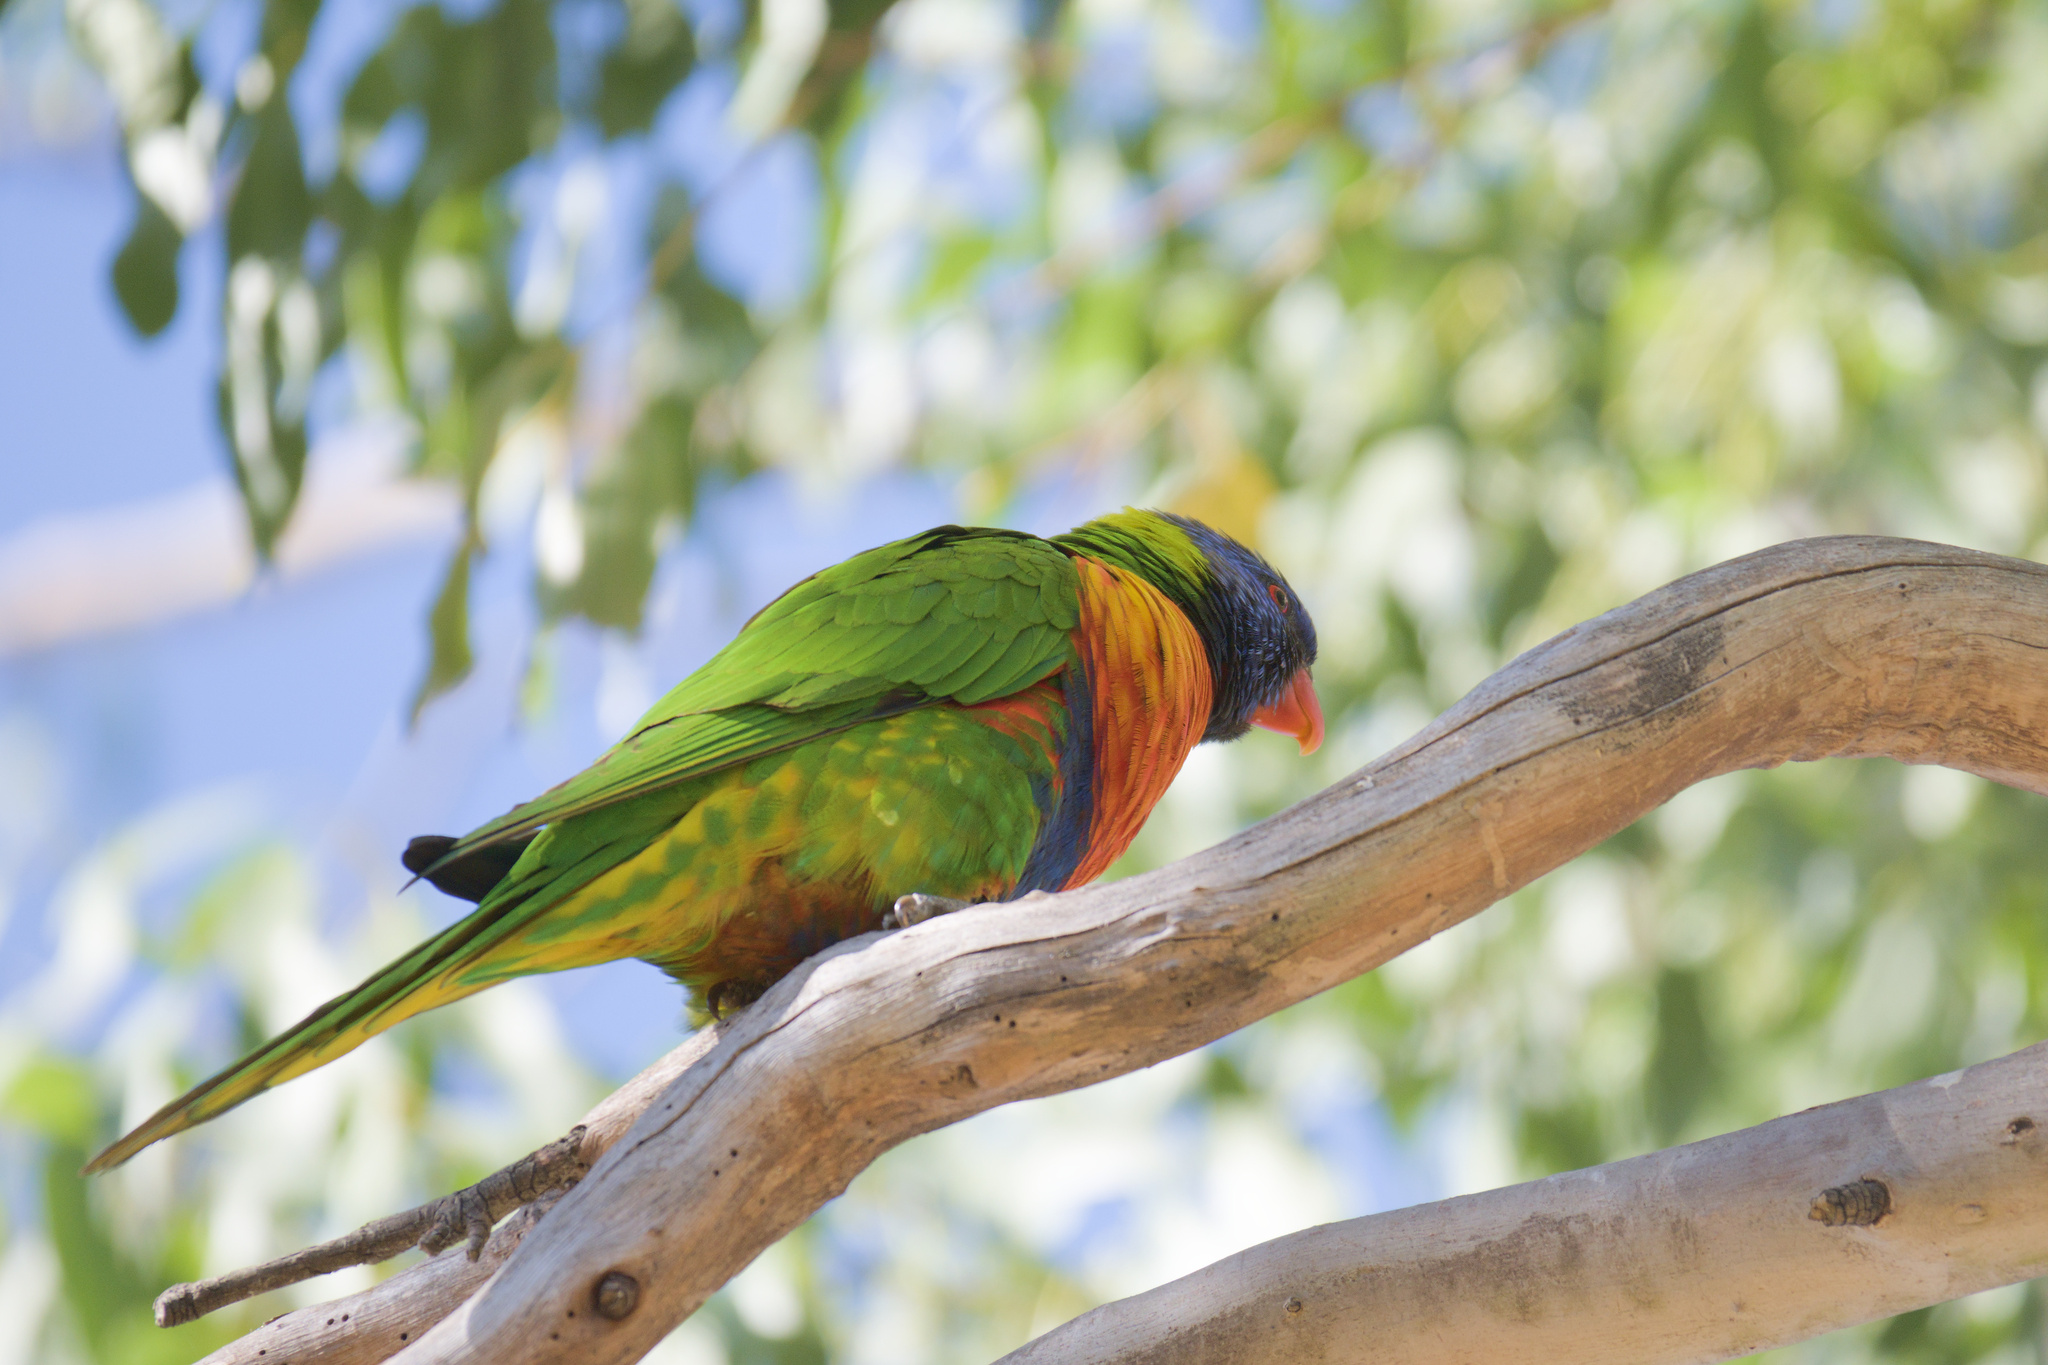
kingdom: Animalia
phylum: Chordata
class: Aves
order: Psittaciformes
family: Psittacidae
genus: Trichoglossus
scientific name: Trichoglossus haematodus
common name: Coconut lorikeet
